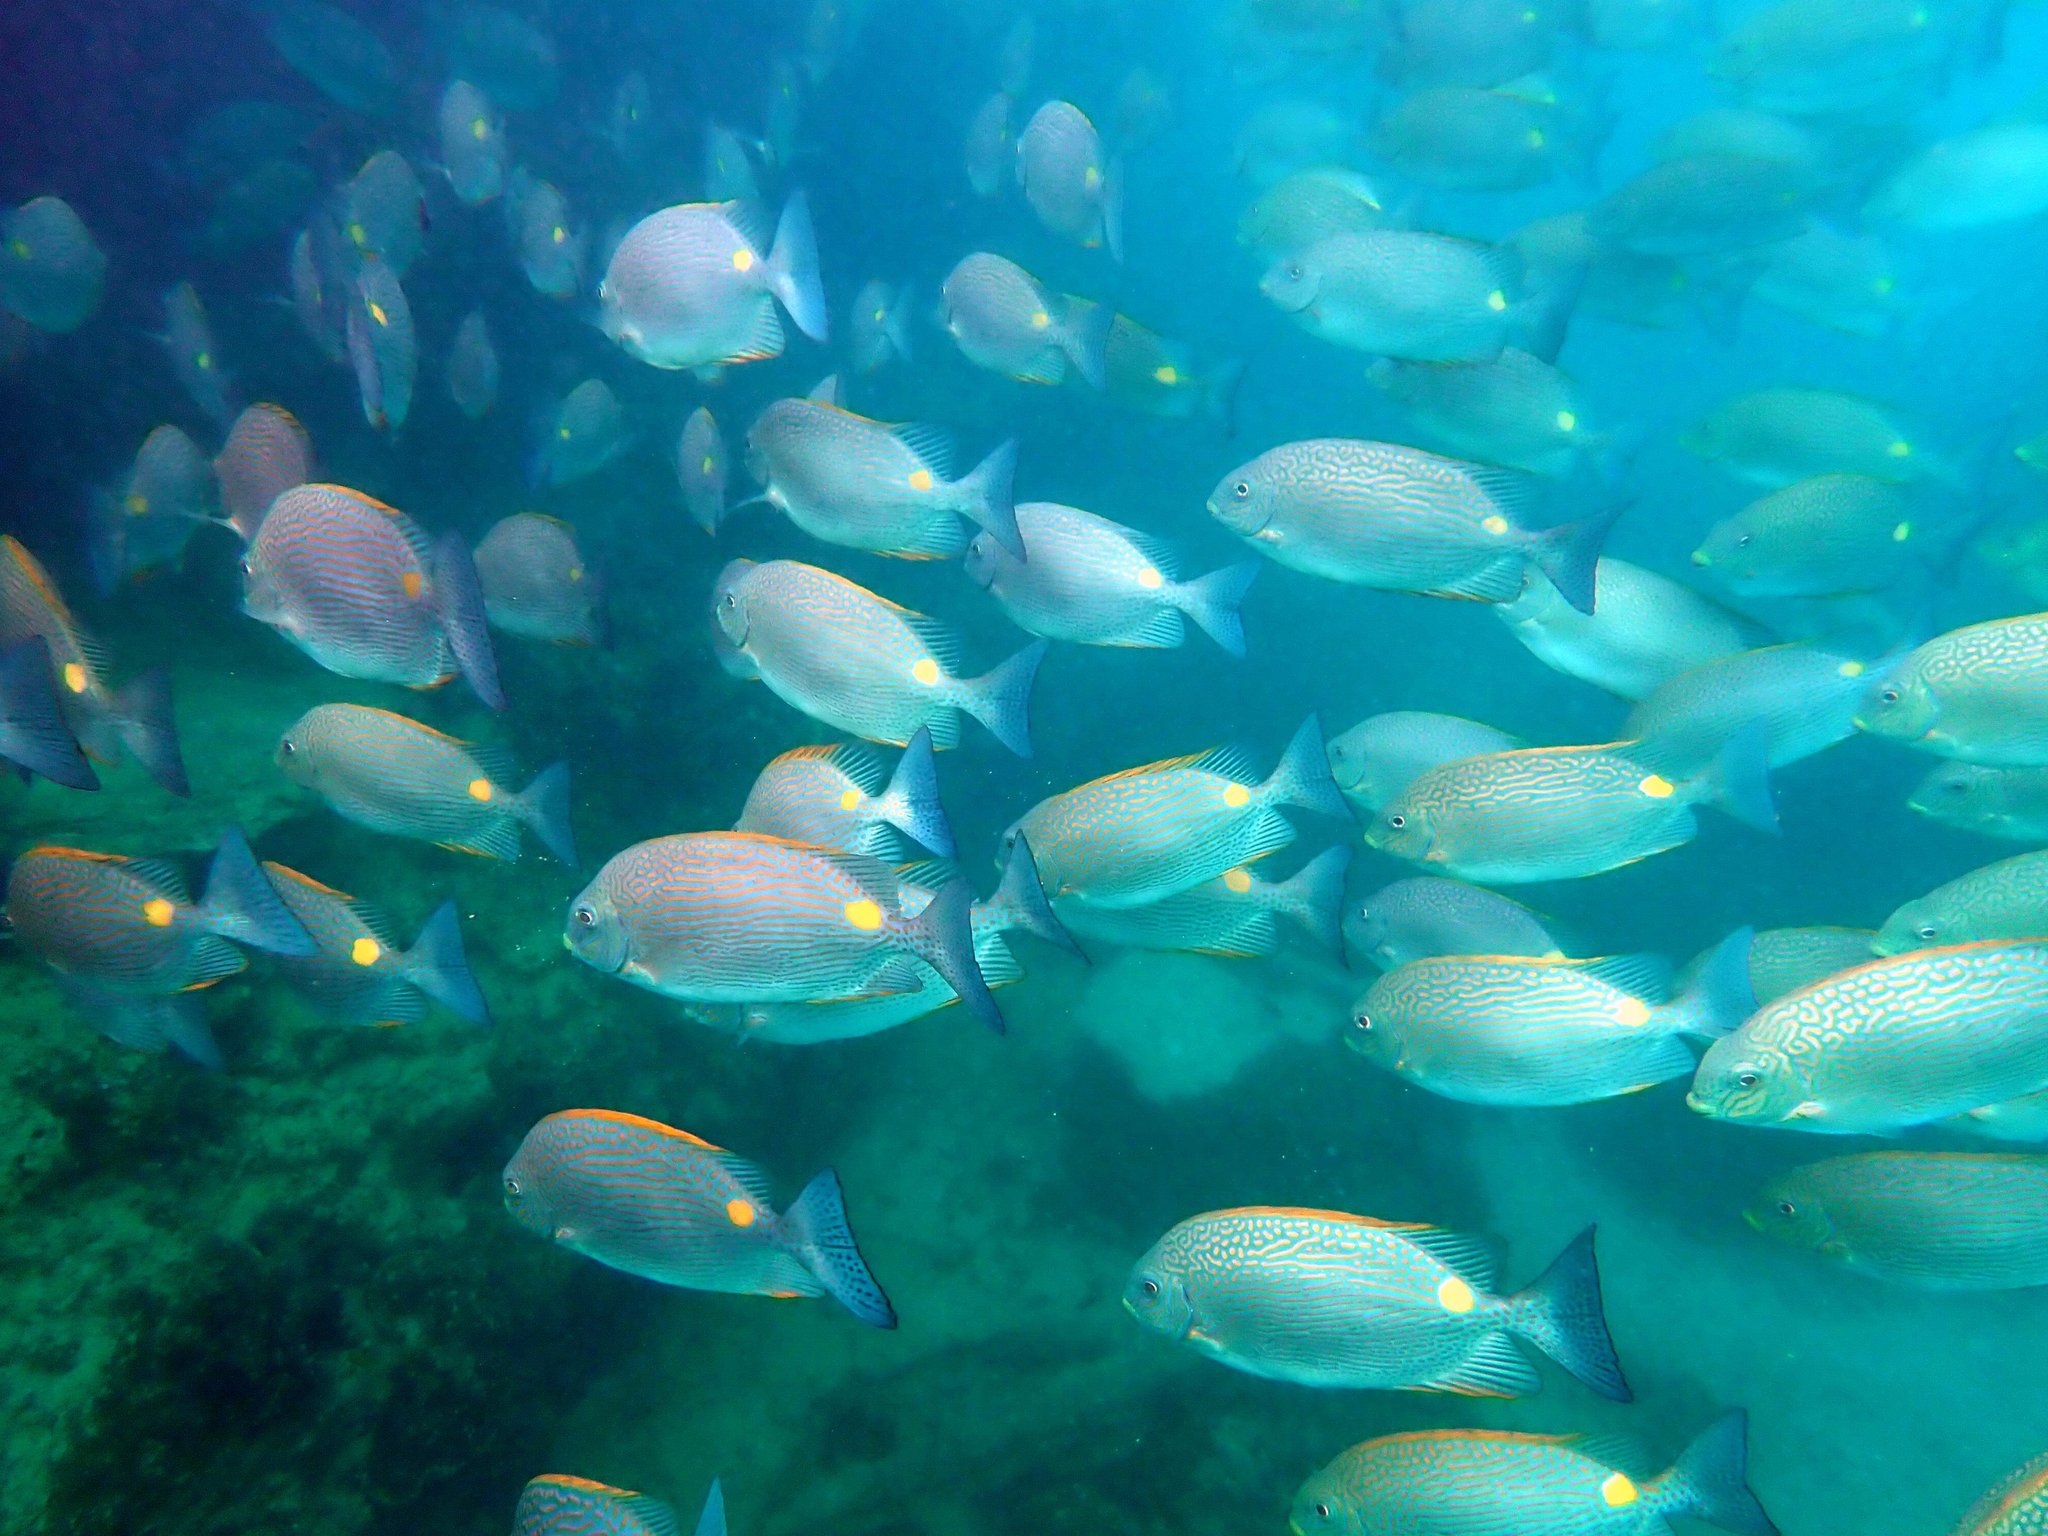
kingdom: Animalia
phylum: Chordata
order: Perciformes
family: Siganidae
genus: Siganus
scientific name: Siganus lineatus
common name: Lined rabbitfish
